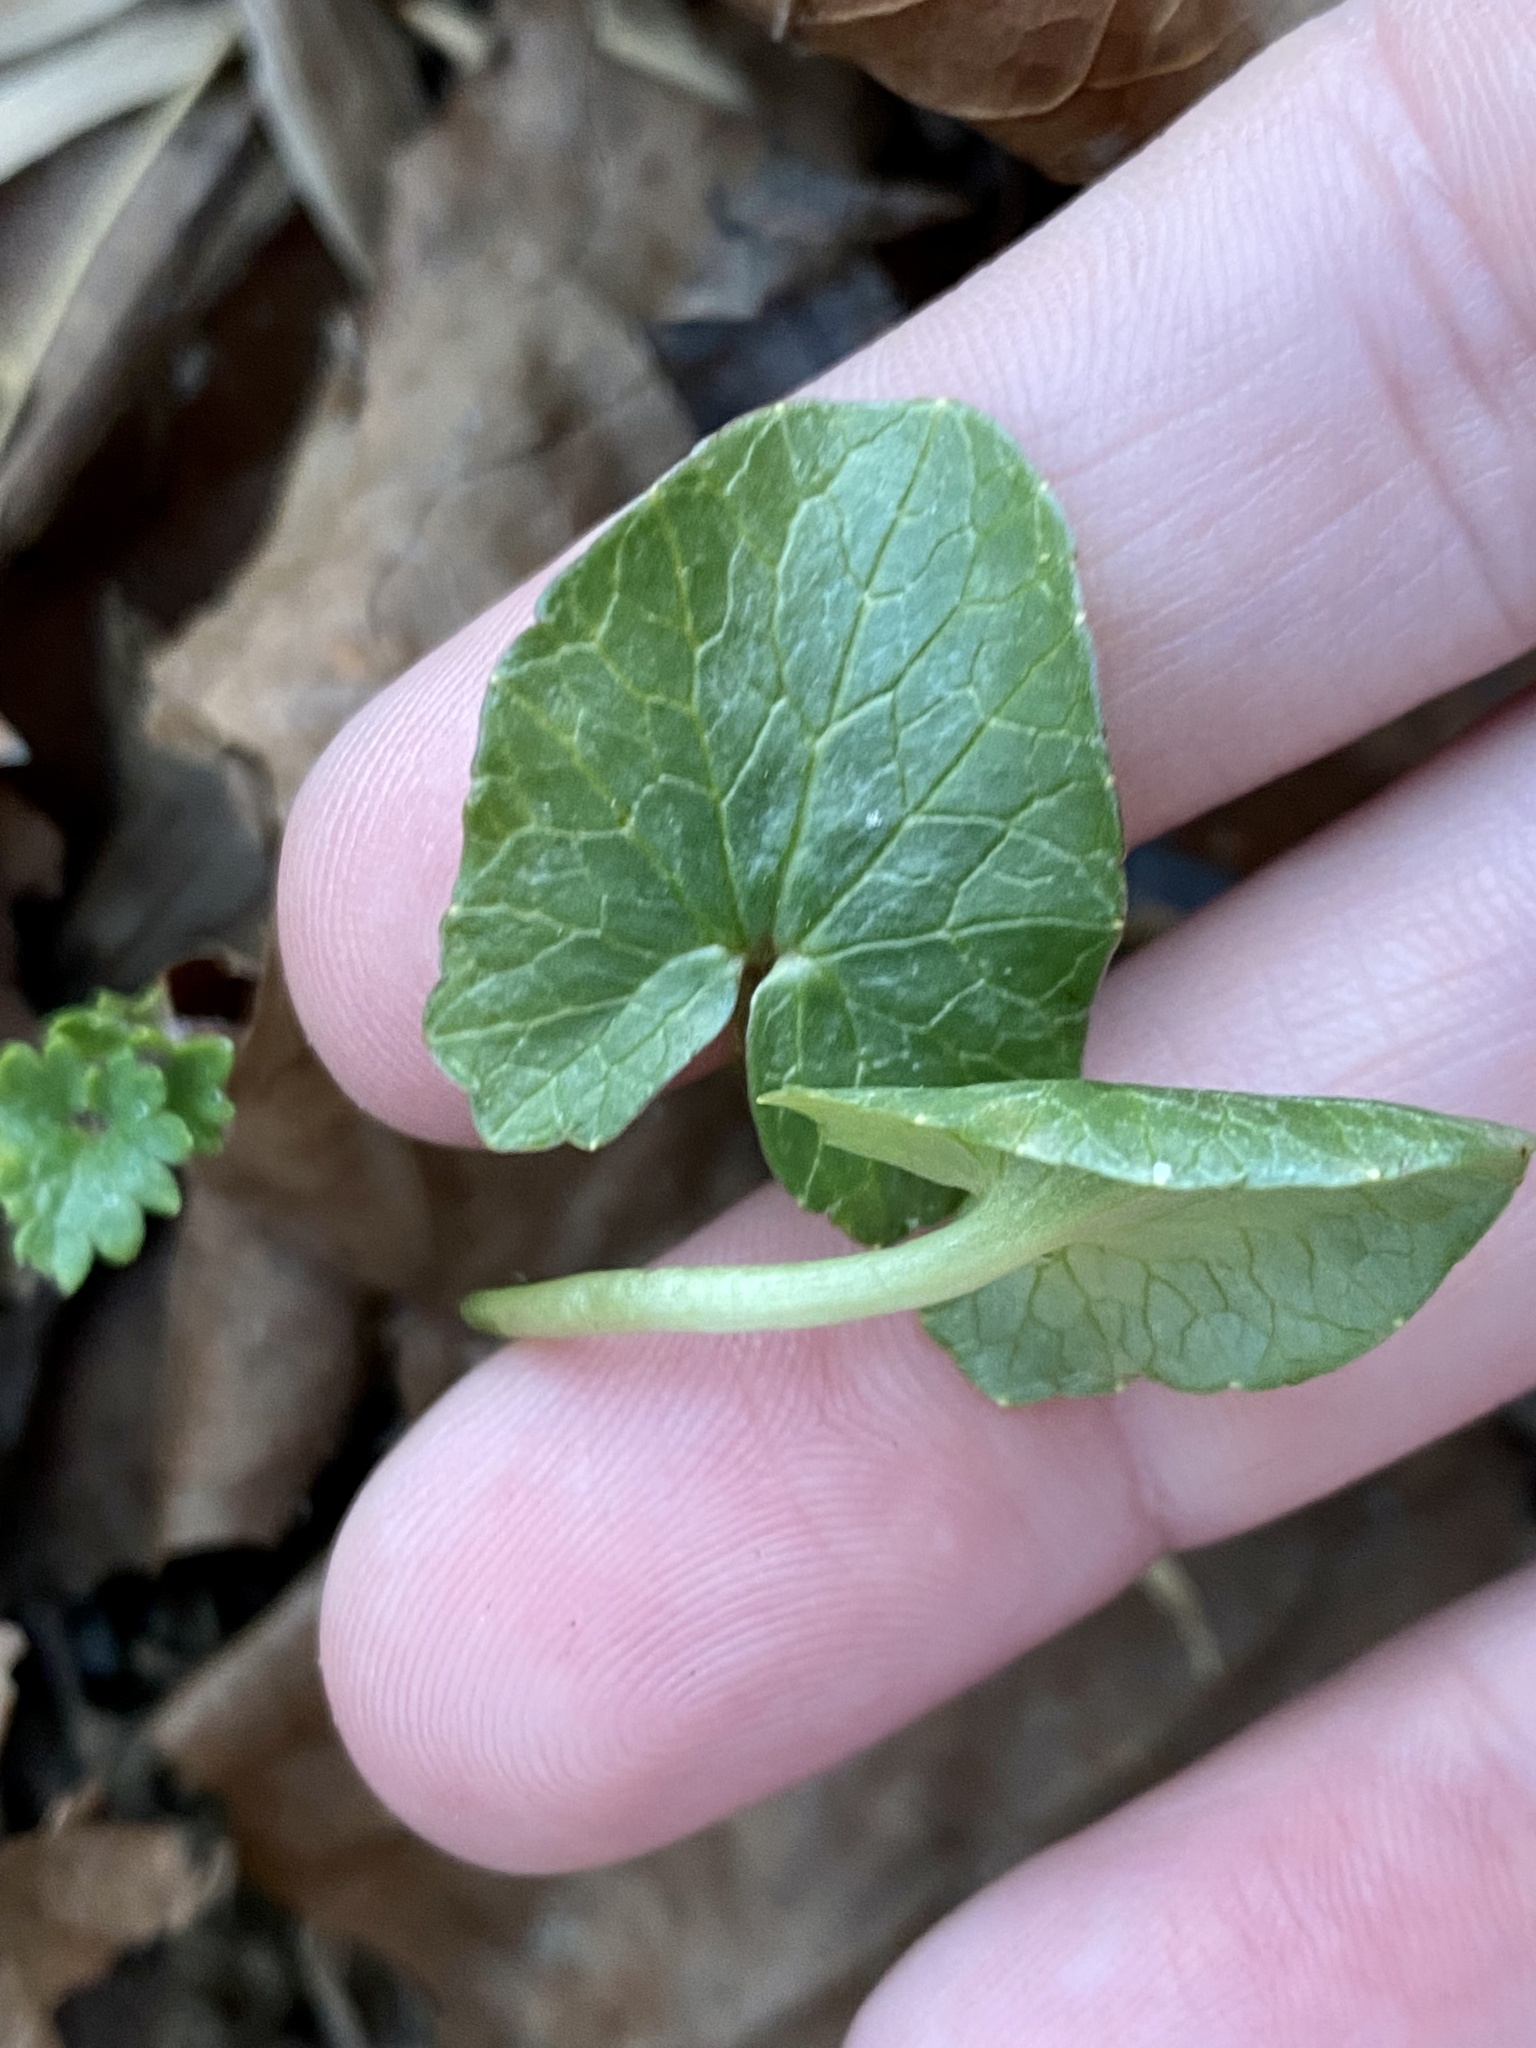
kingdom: Plantae
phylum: Tracheophyta
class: Magnoliopsida
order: Ranunculales
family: Ranunculaceae
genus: Ficaria
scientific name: Ficaria verna
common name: Lesser celandine
